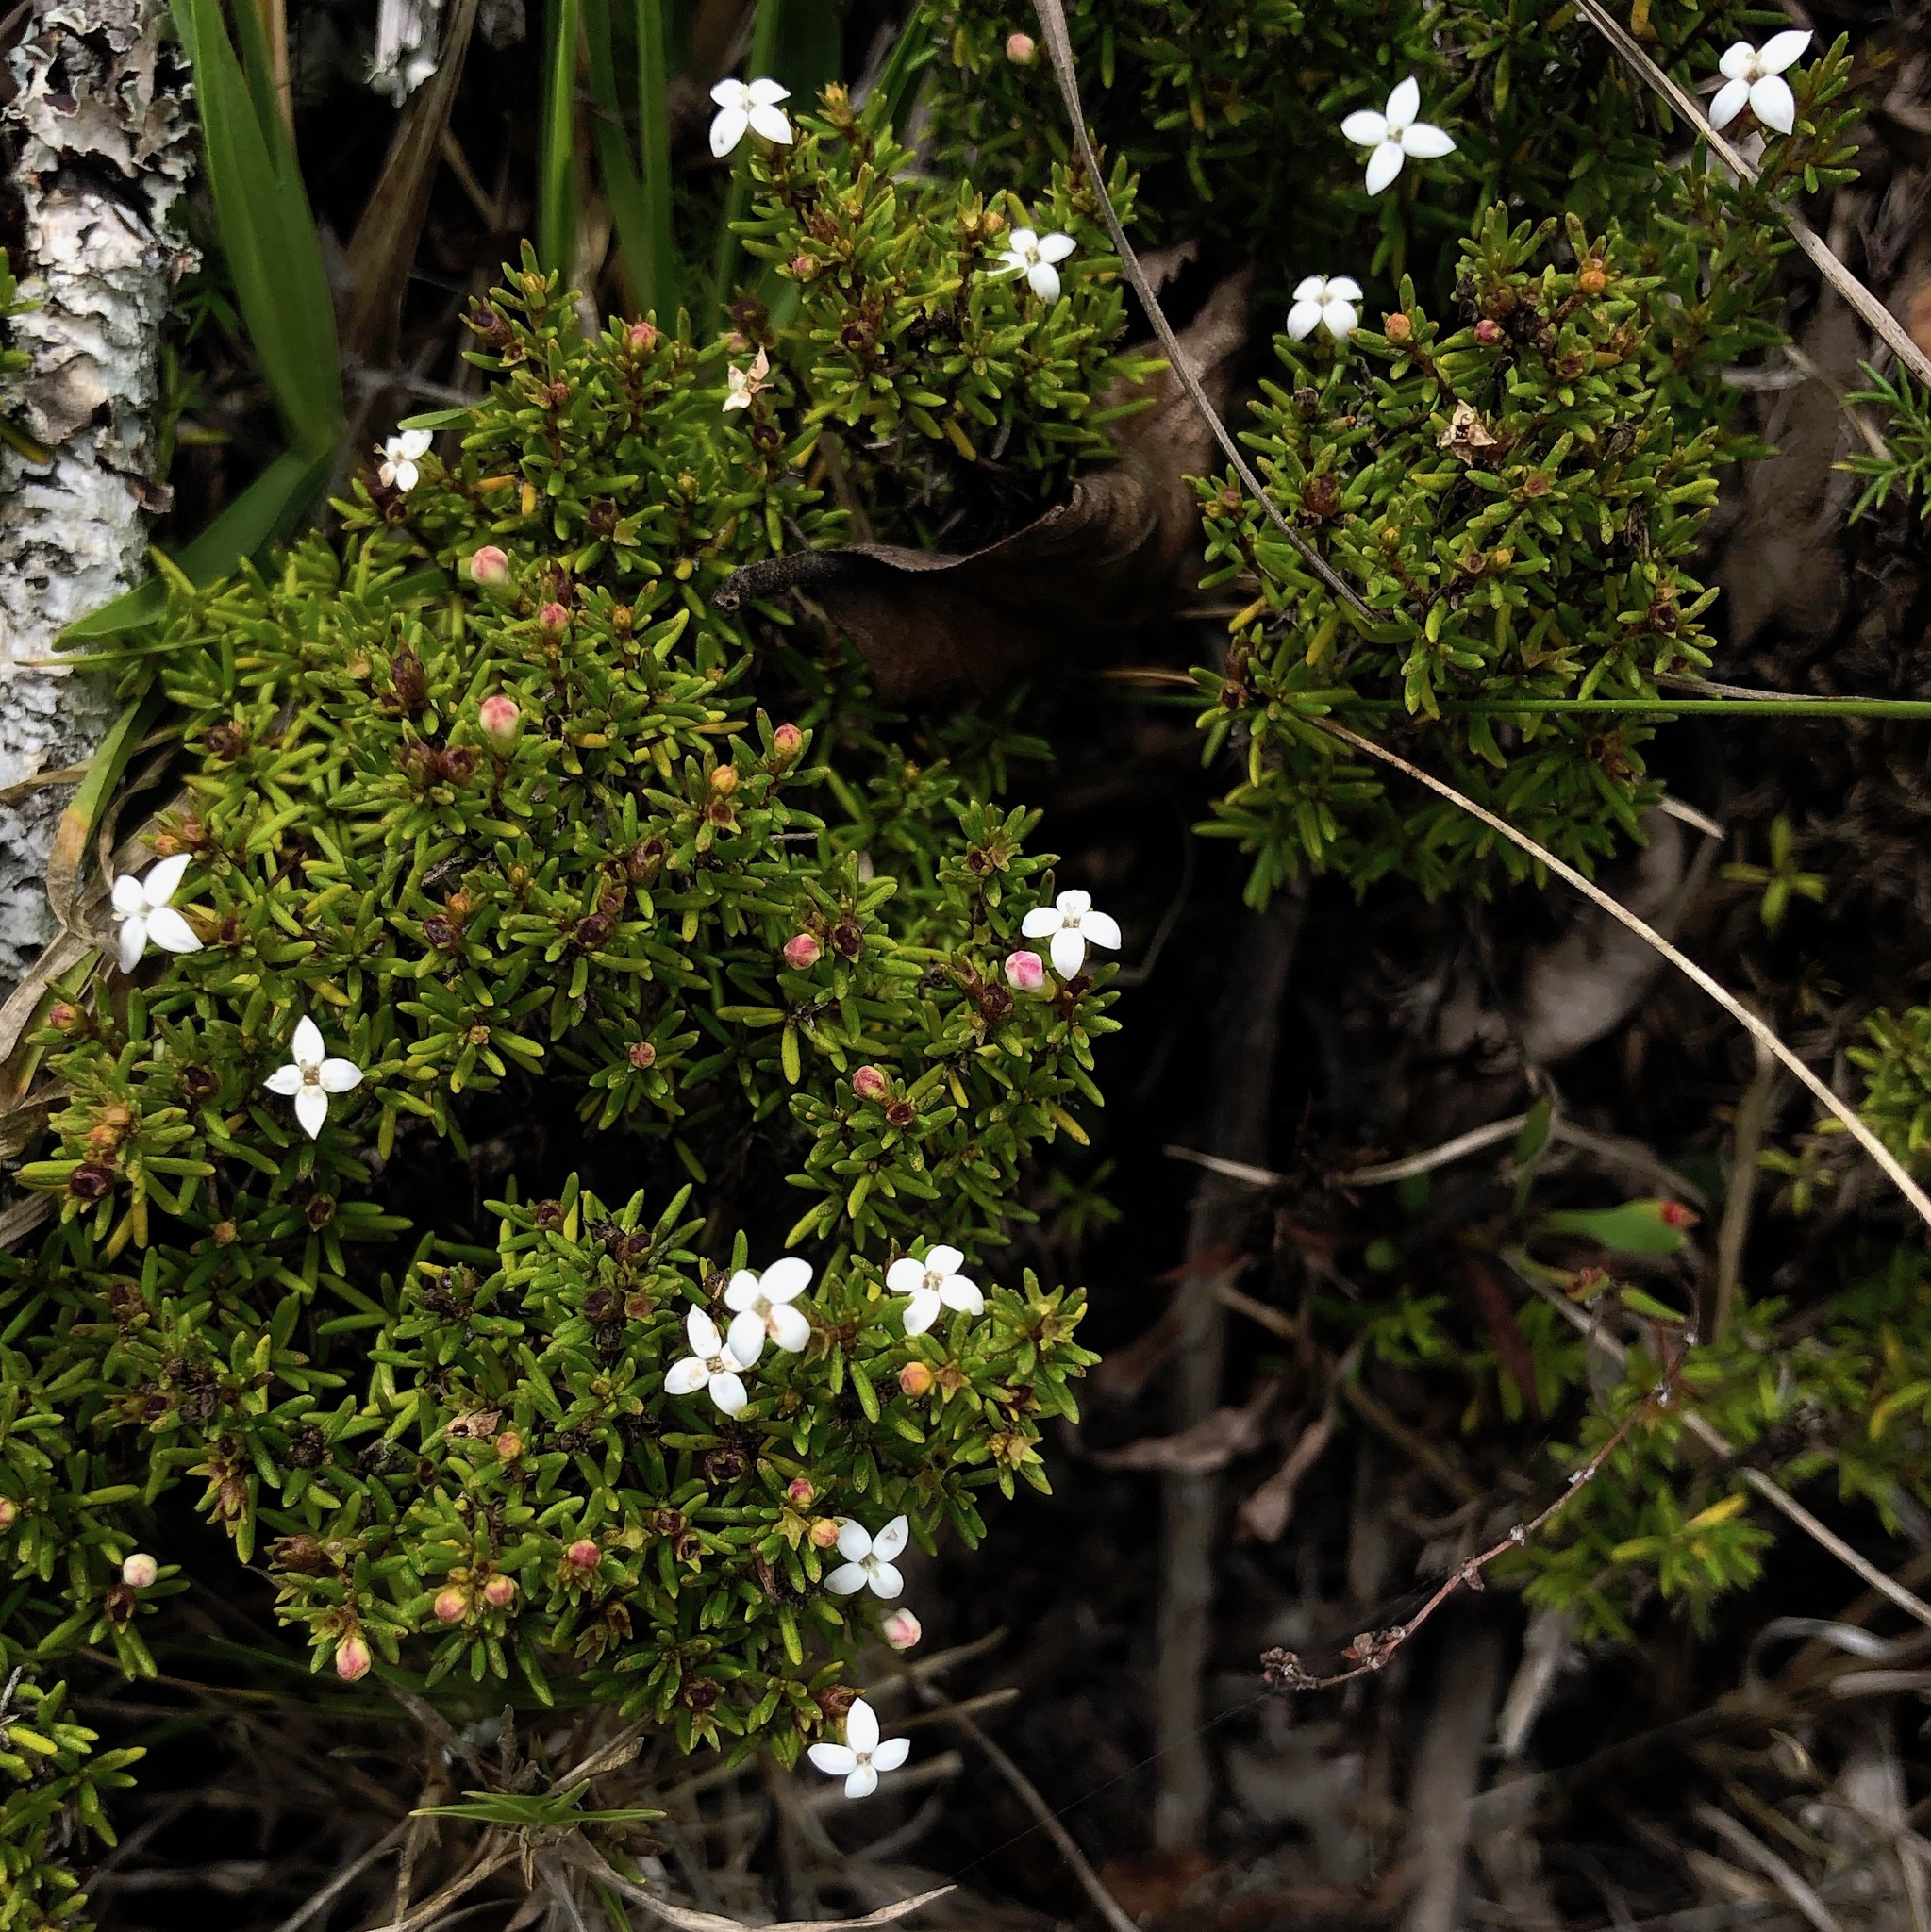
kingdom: Plantae
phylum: Tracheophyta
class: Magnoliopsida
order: Gentianales
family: Rubiaceae
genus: Arcytophyllum
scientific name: Arcytophyllum thymifolium
